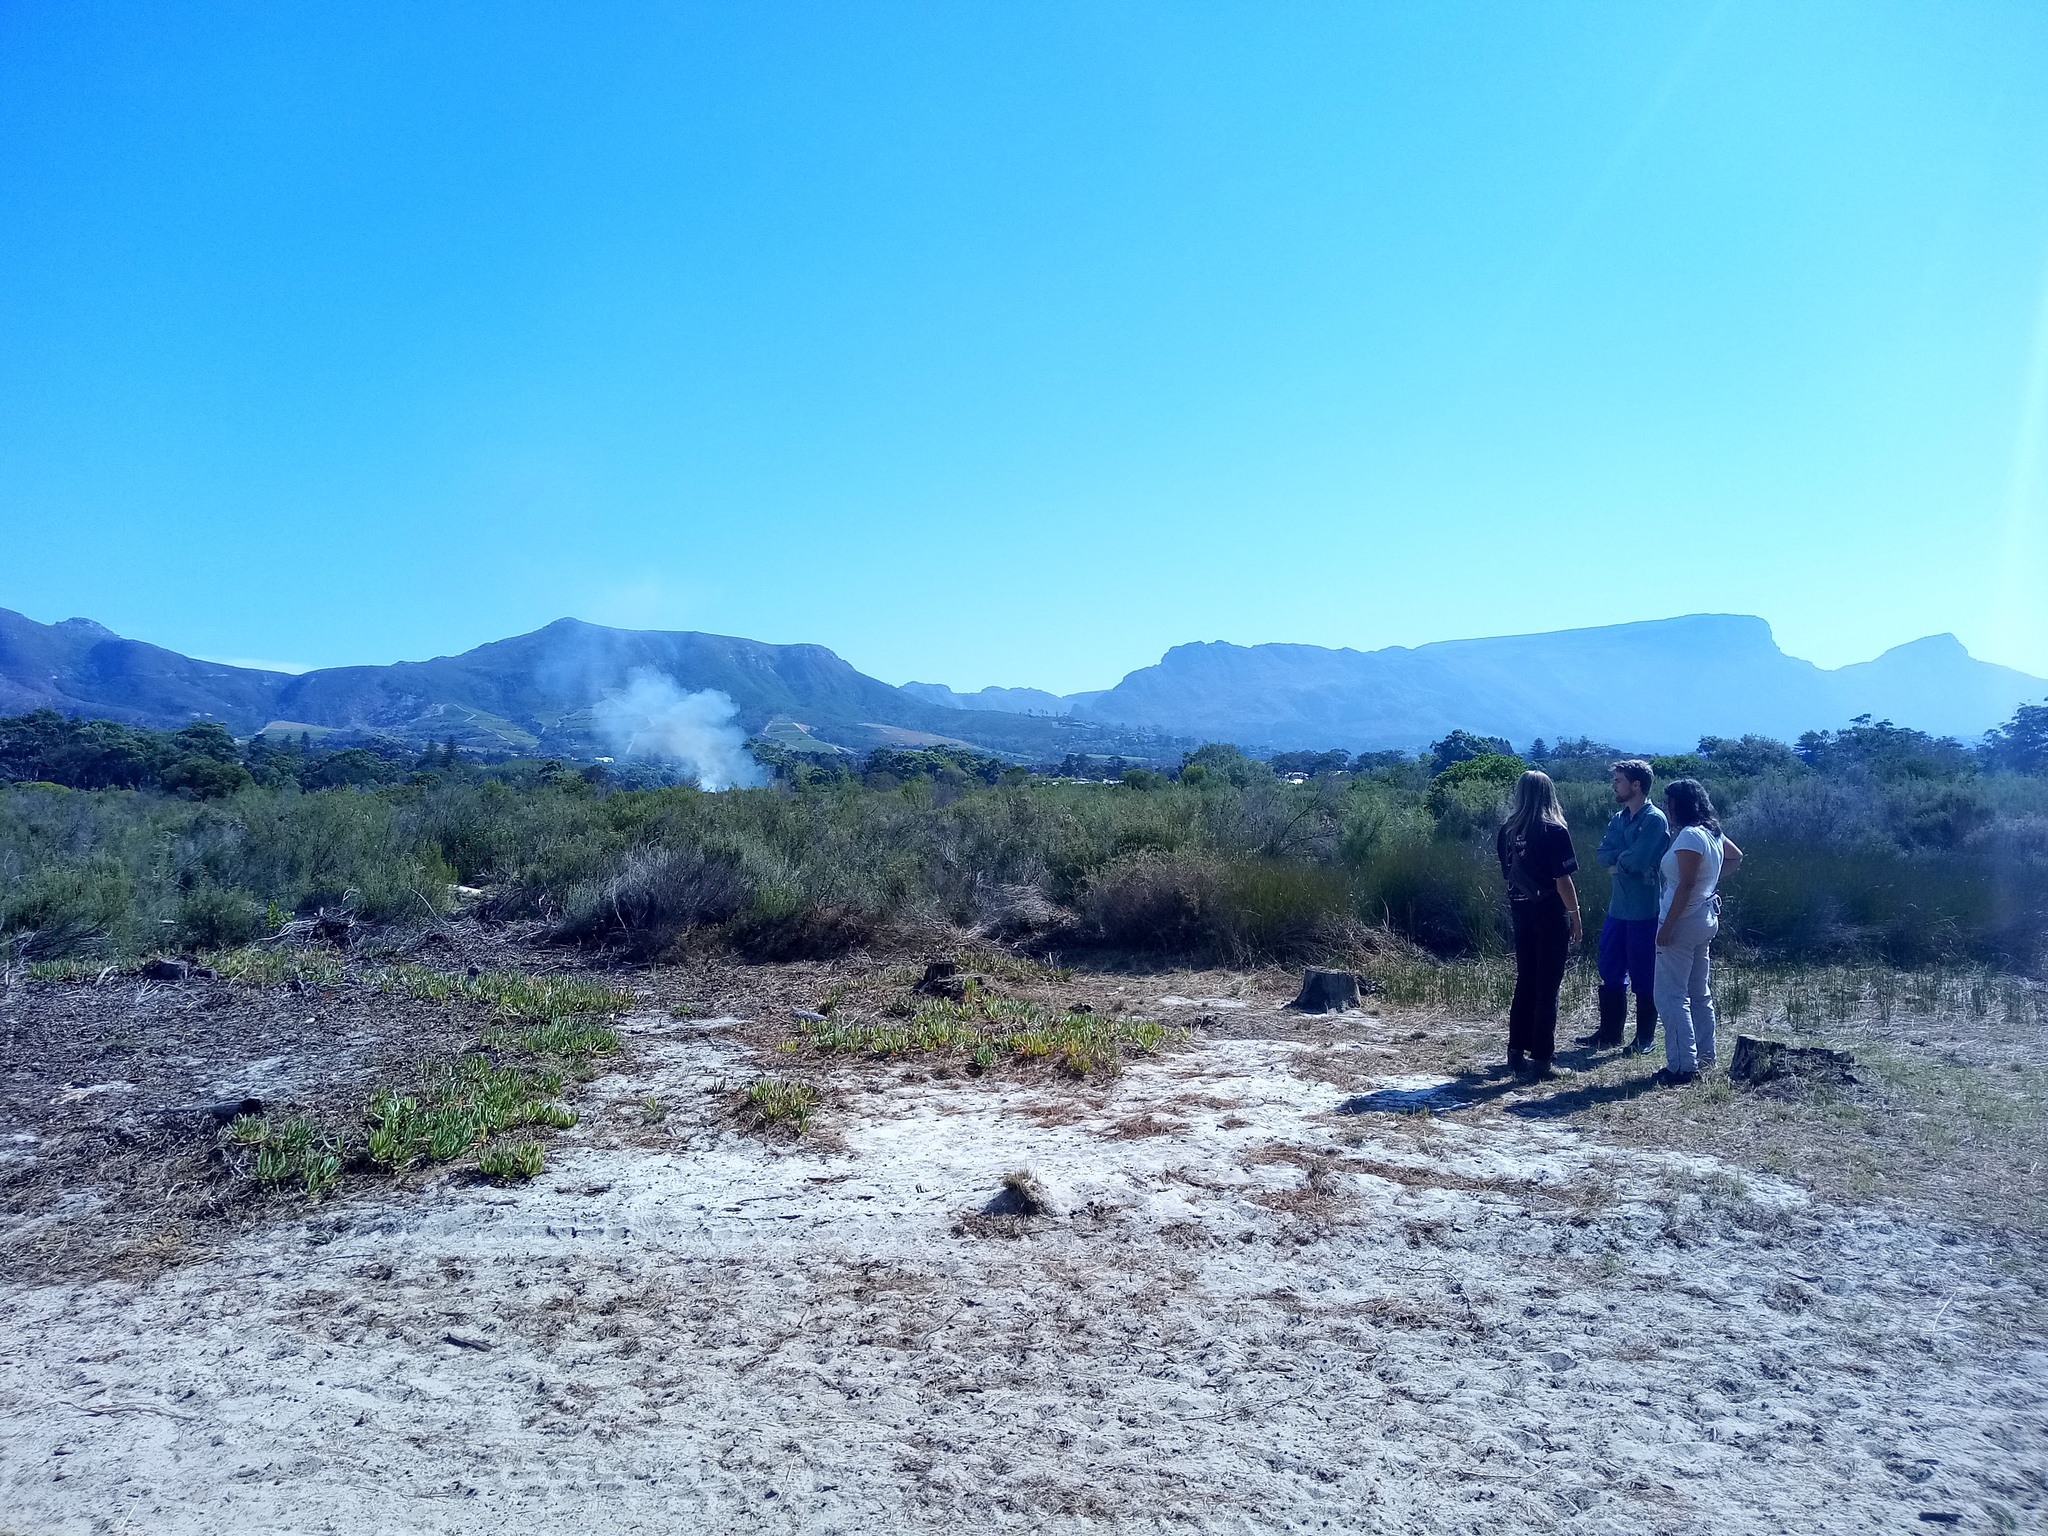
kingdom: Plantae
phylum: Tracheophyta
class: Magnoliopsida
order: Malvales
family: Thymelaeaceae
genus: Passerina
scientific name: Passerina corymbosa
